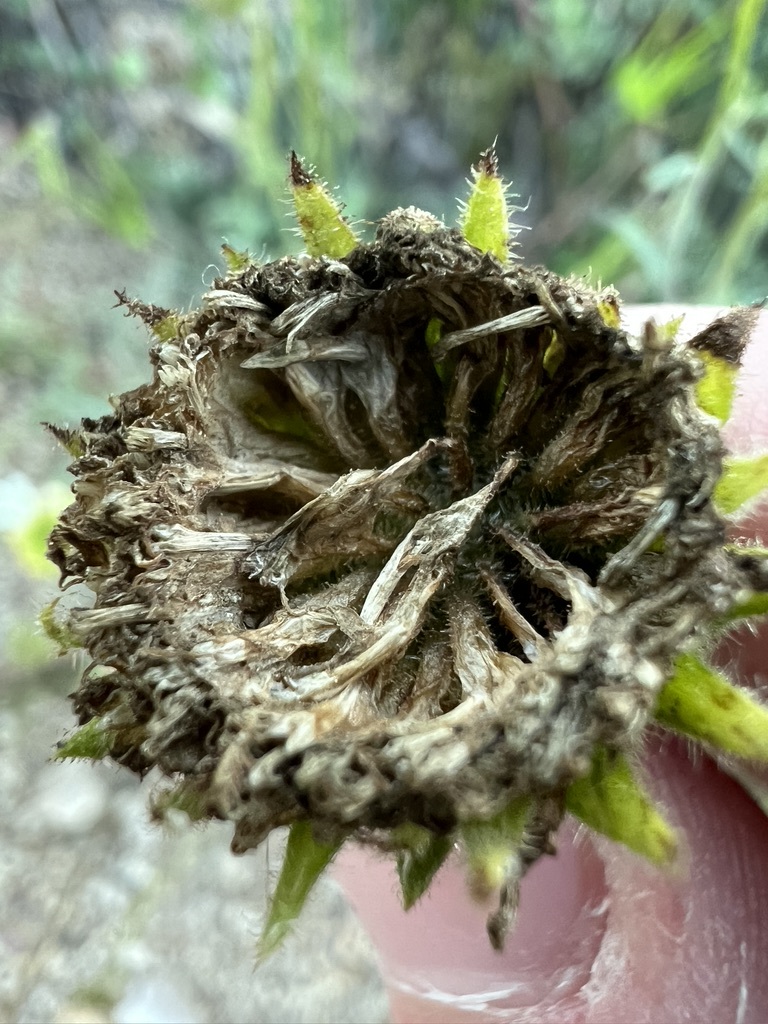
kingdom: Plantae
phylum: Tracheophyta
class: Magnoliopsida
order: Asterales
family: Asteraceae
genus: Chaenactis
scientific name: Chaenactis artemisiifolia
